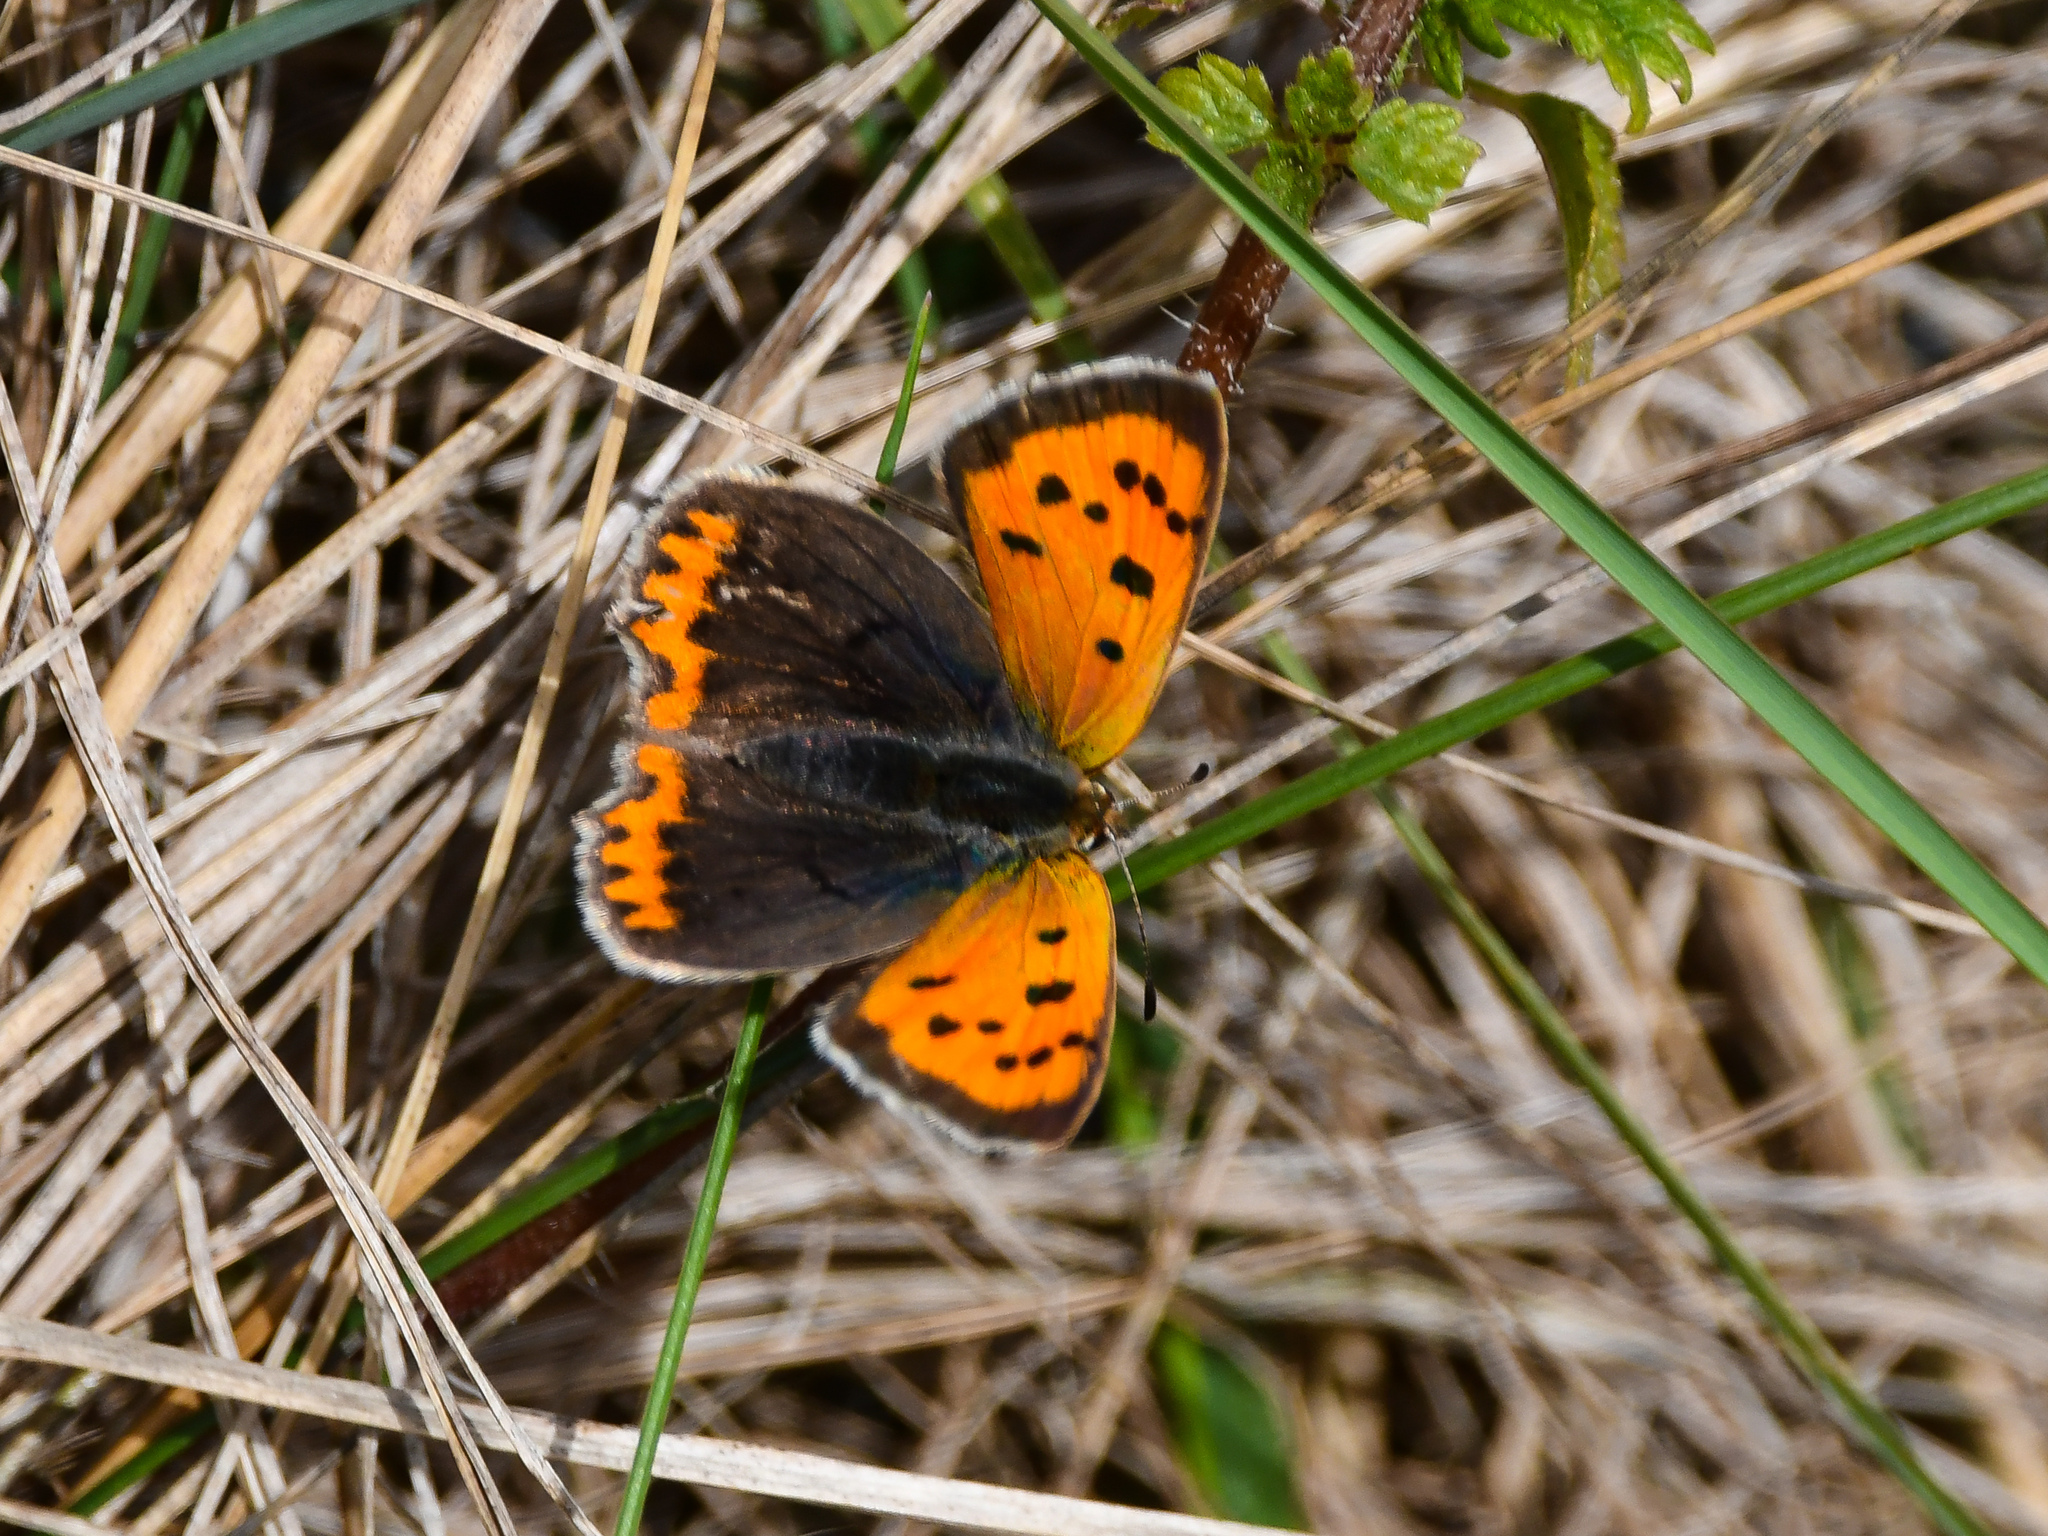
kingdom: Animalia
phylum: Arthropoda
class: Insecta
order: Lepidoptera
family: Lycaenidae
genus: Lycaena
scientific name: Lycaena phlaeas
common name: Small copper
